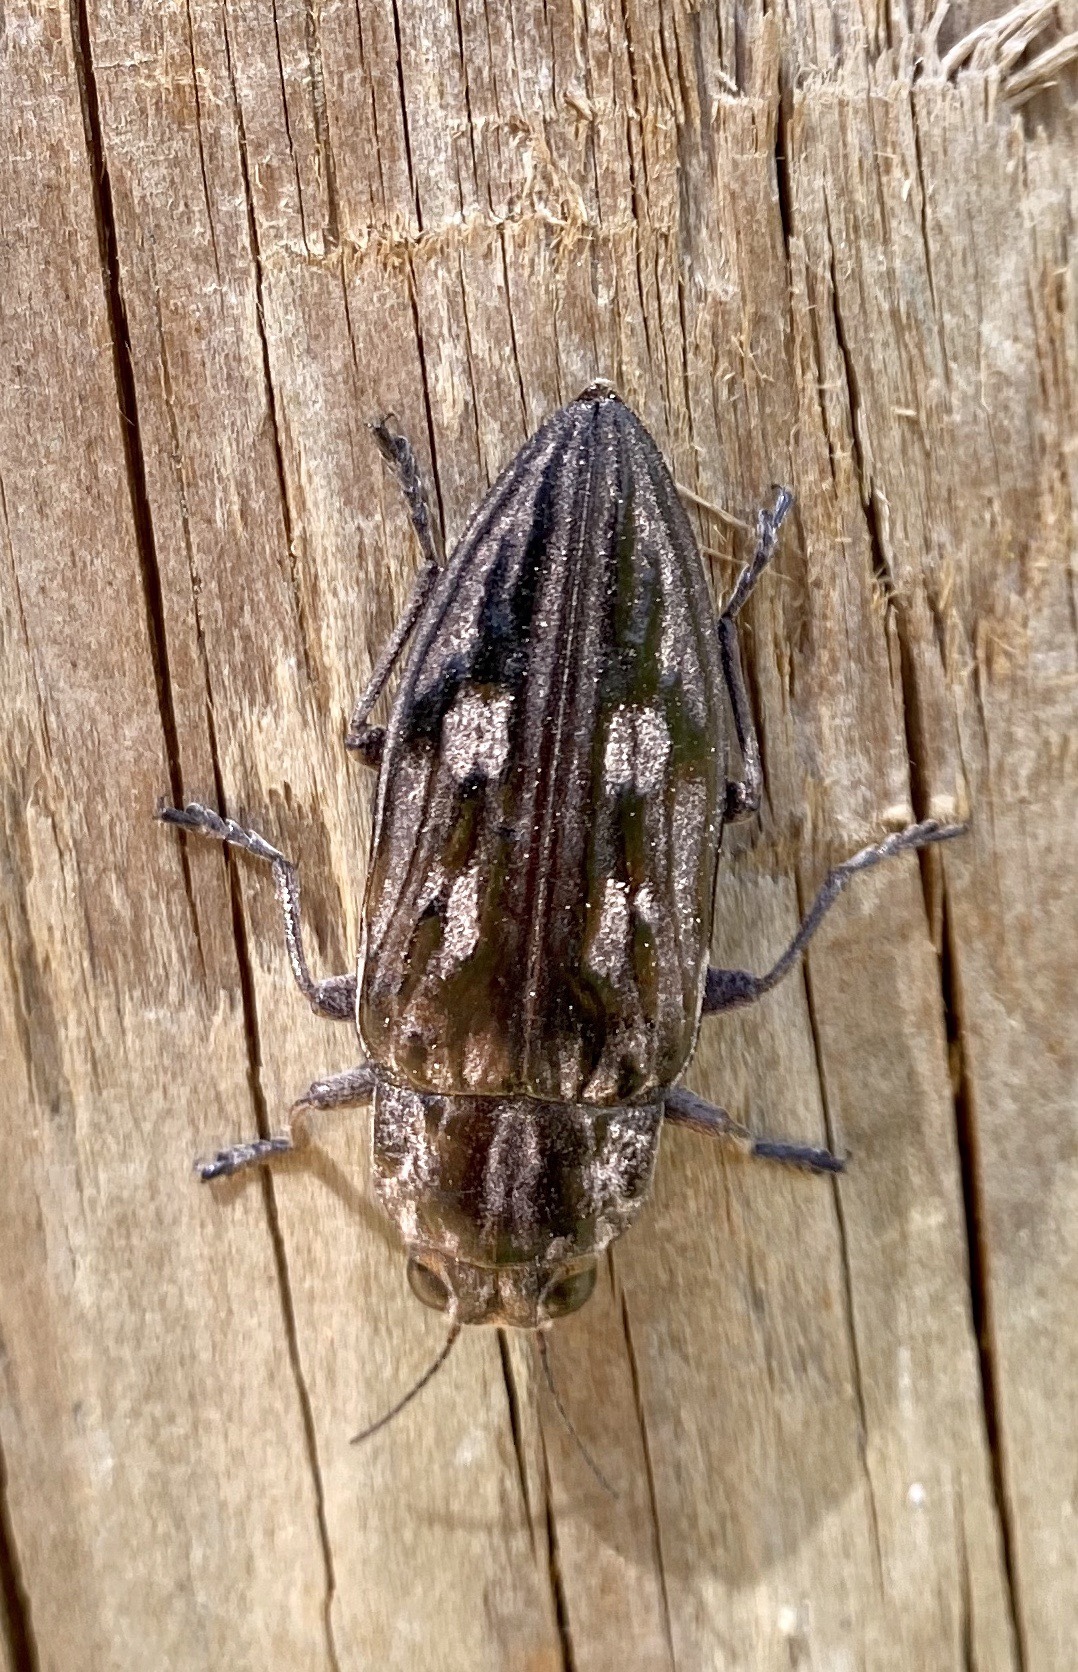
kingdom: Animalia
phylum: Arthropoda
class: Insecta
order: Coleoptera
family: Buprestidae
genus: Chalcophora
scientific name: Chalcophora virginiensis
